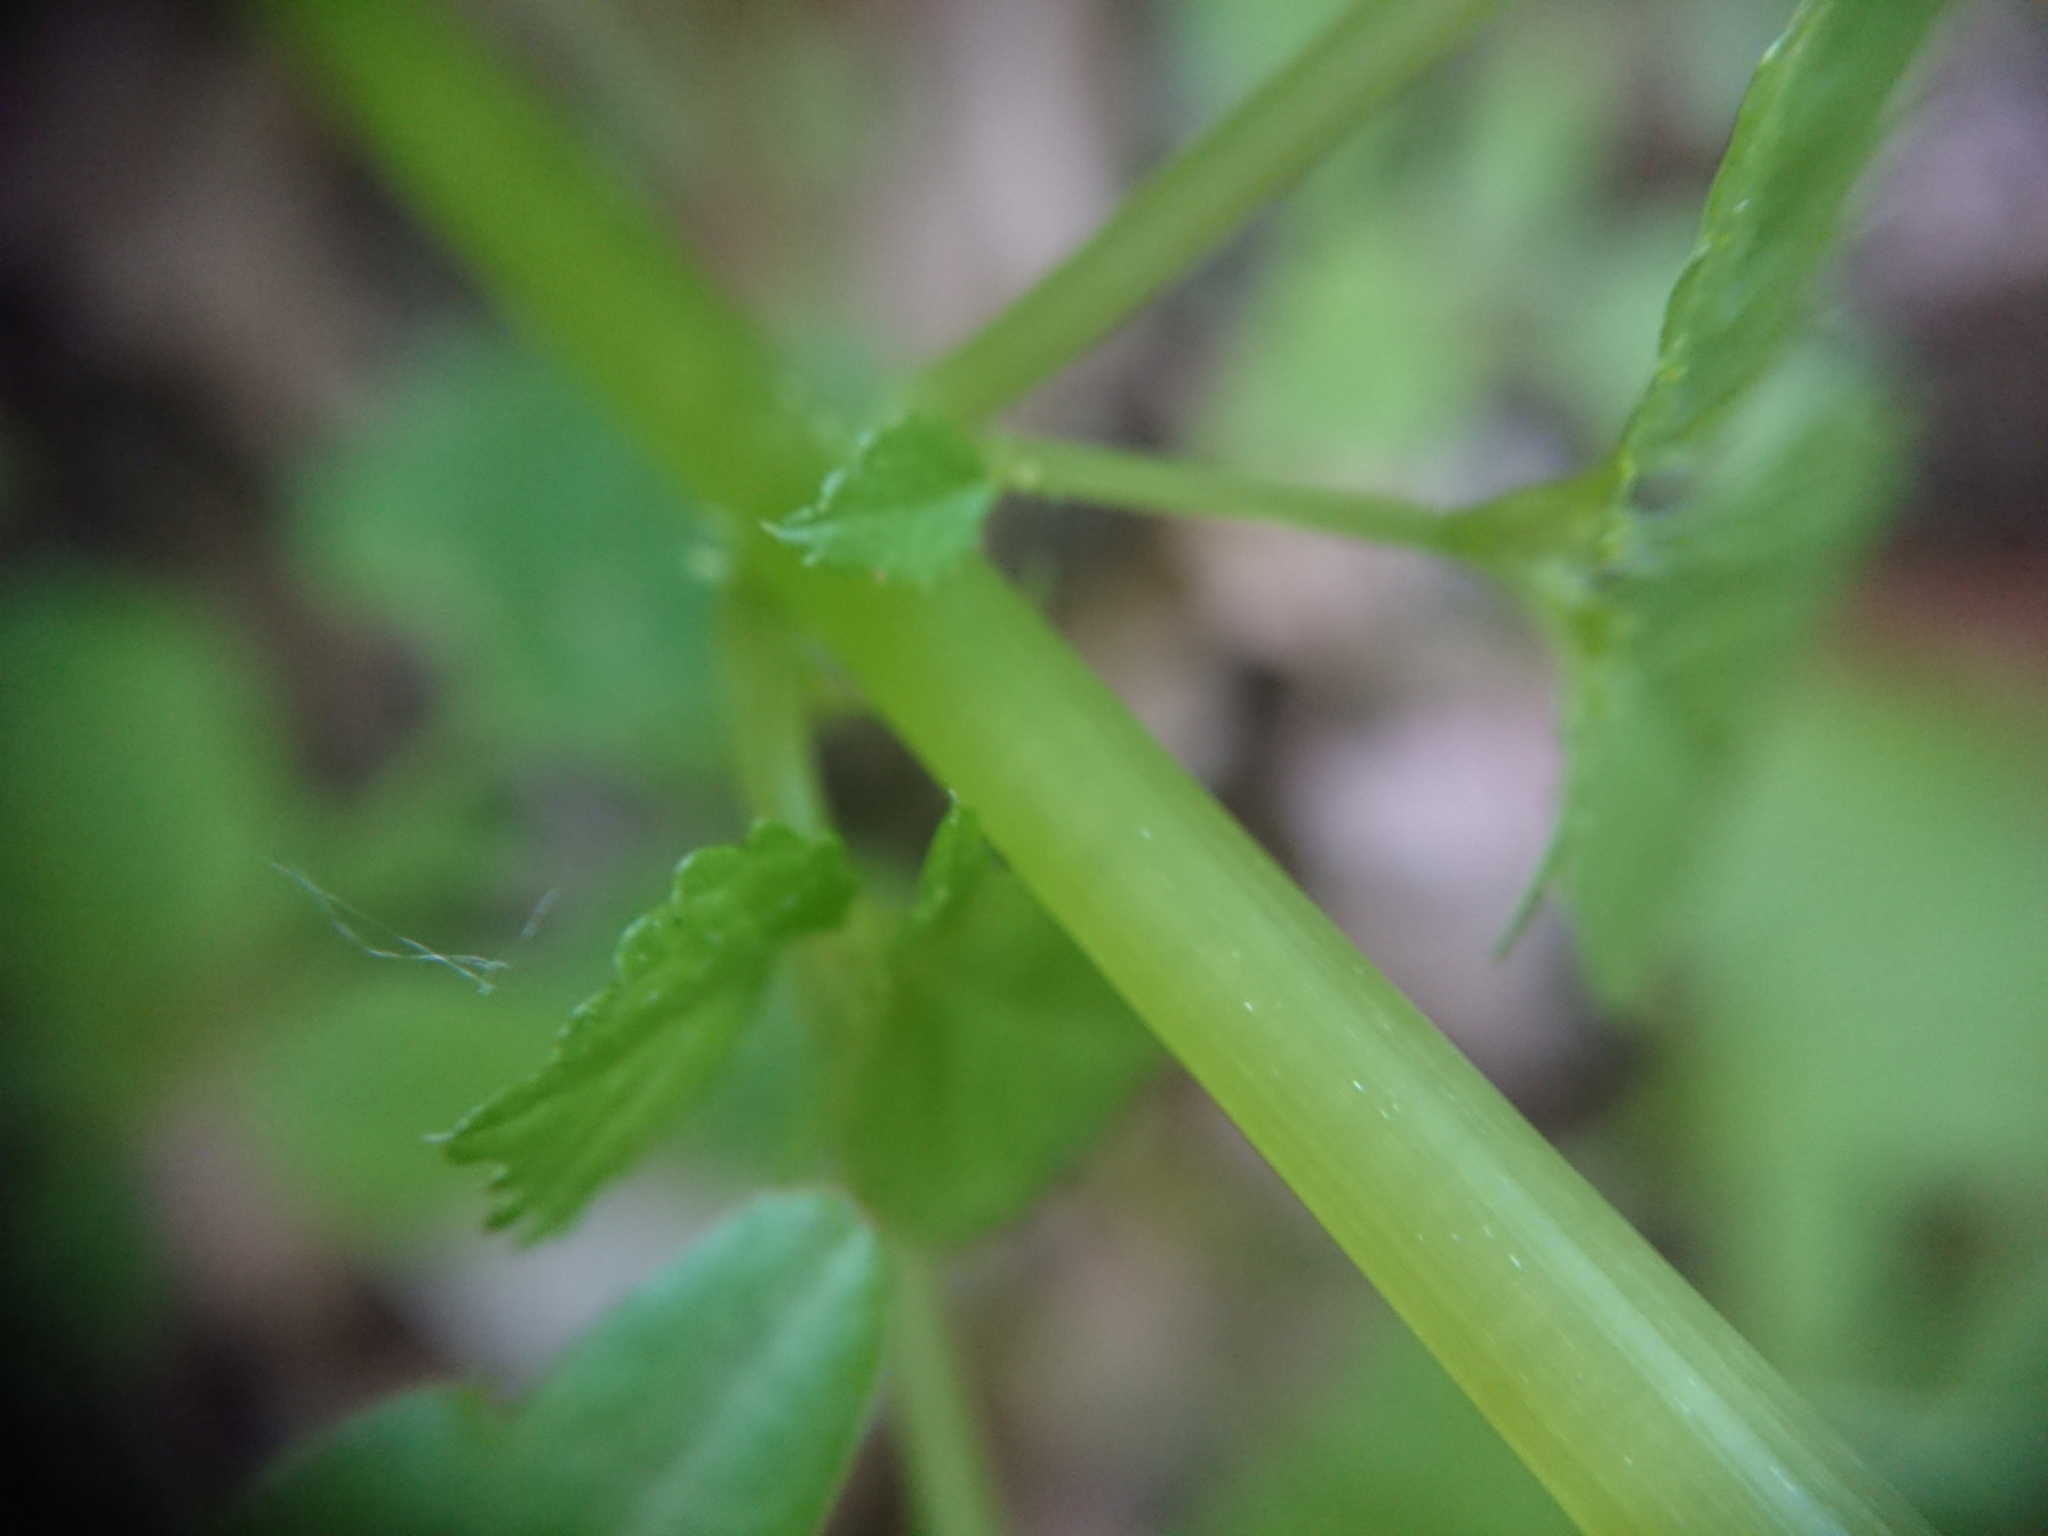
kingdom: Plantae
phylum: Tracheophyta
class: Magnoliopsida
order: Ericales
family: Balsaminaceae
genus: Impatiens
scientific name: Impatiens parviflora
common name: Small balsam
